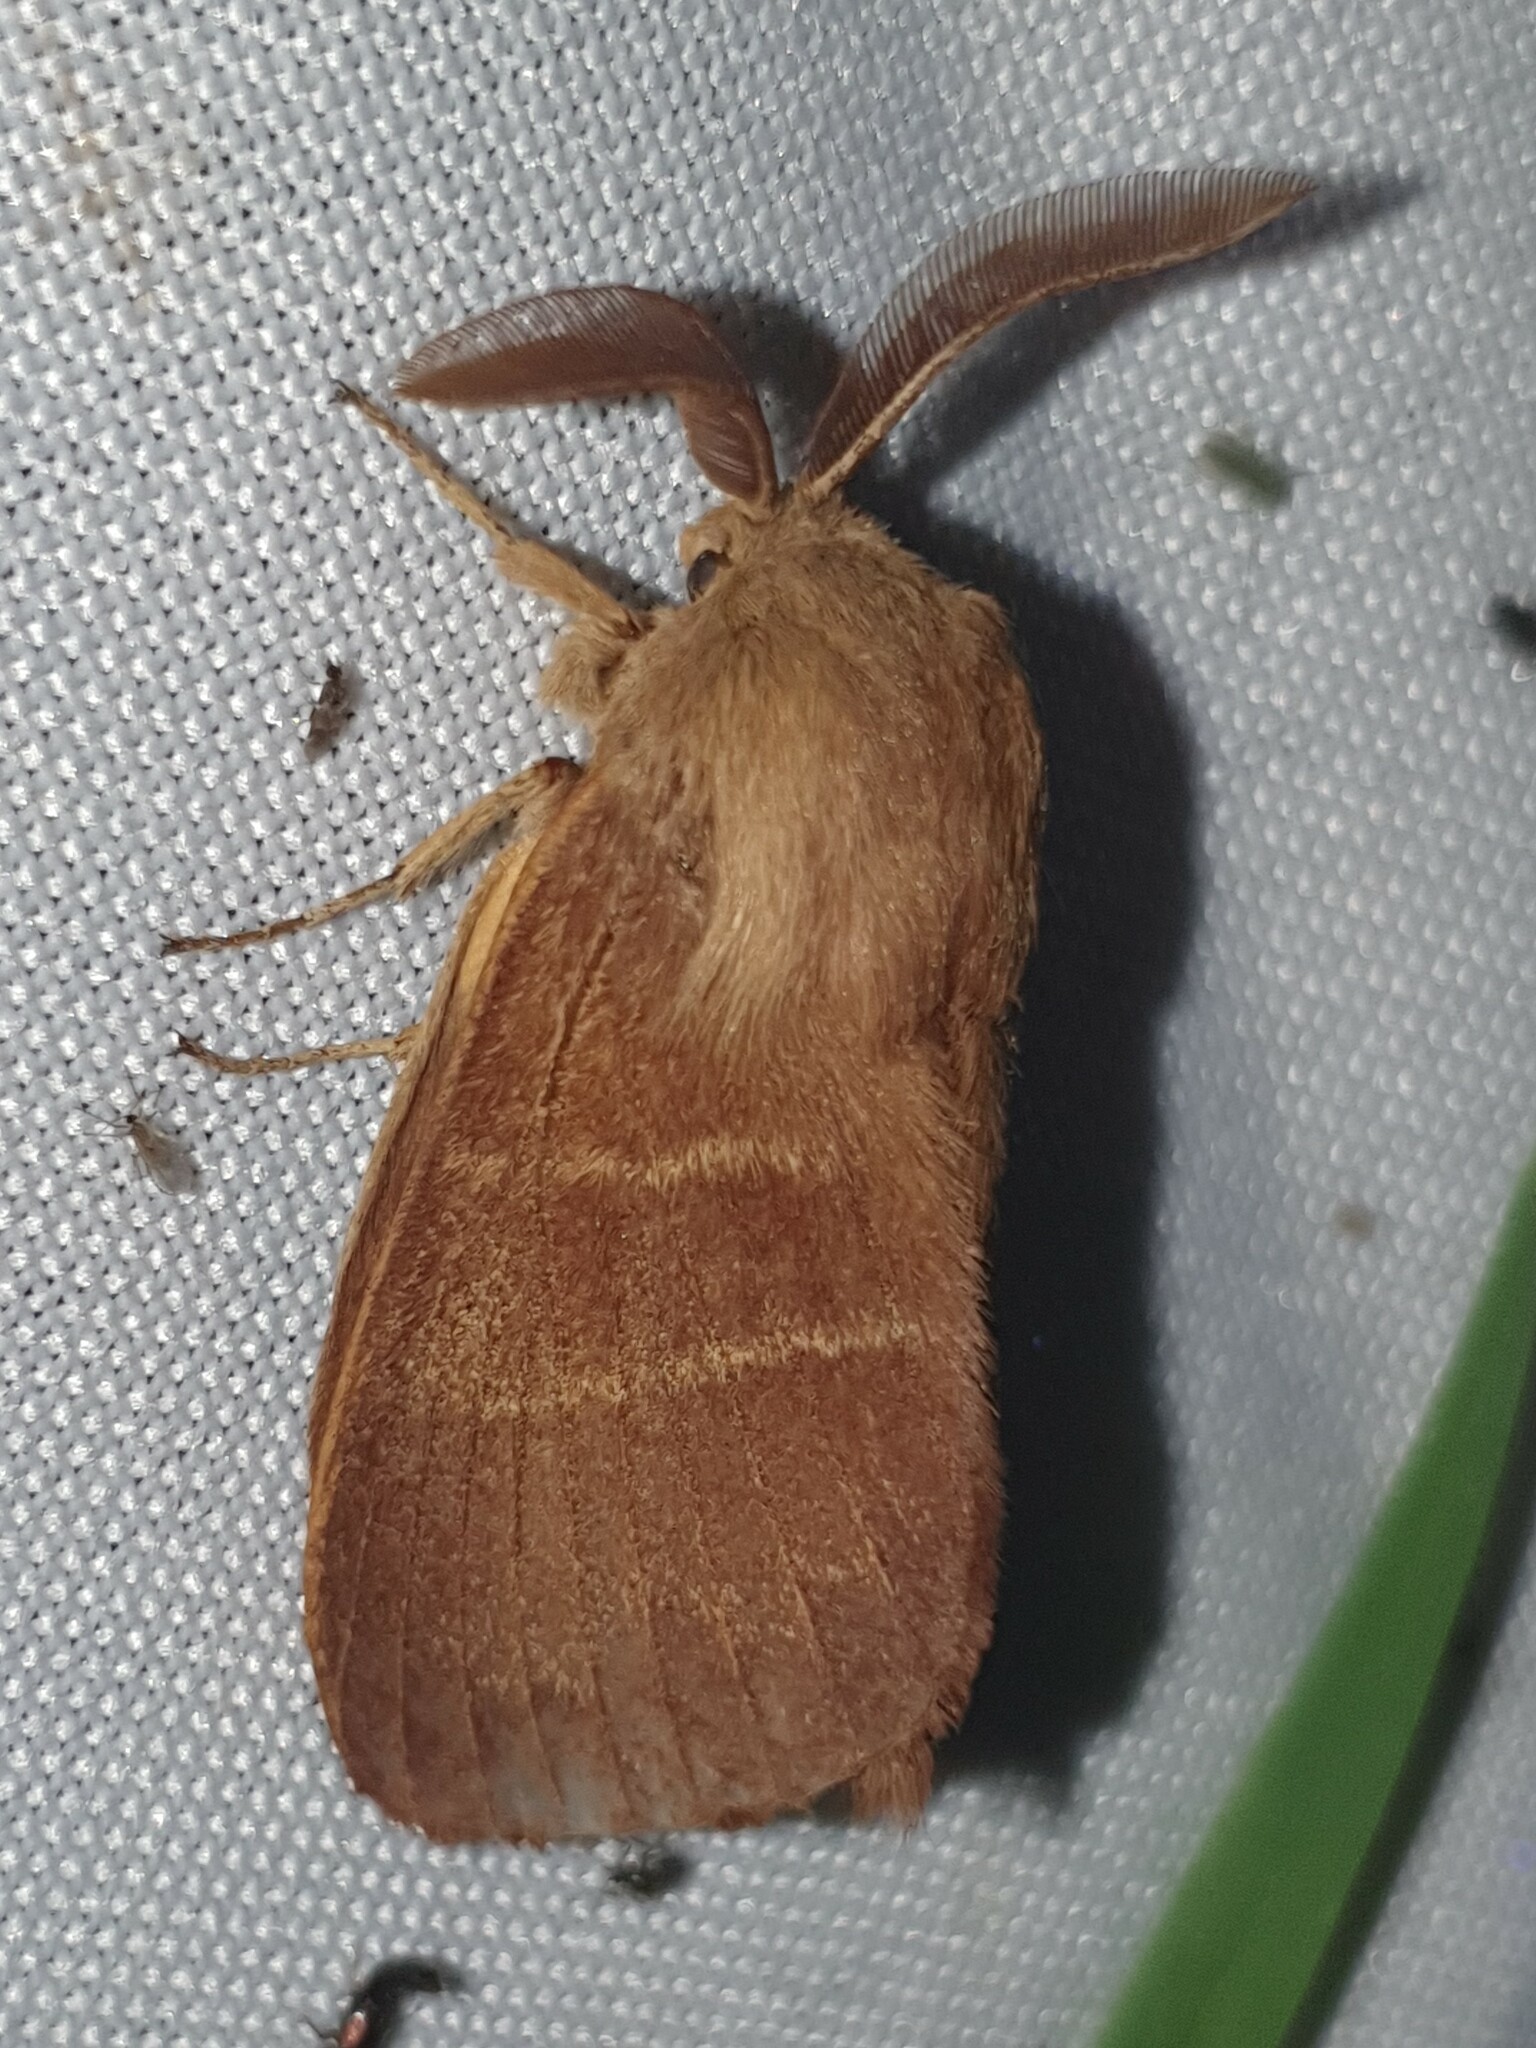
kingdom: Animalia
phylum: Arthropoda
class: Insecta
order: Lepidoptera
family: Lasiocampidae
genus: Macrothylacia
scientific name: Macrothylacia rubi
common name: Fox moth
